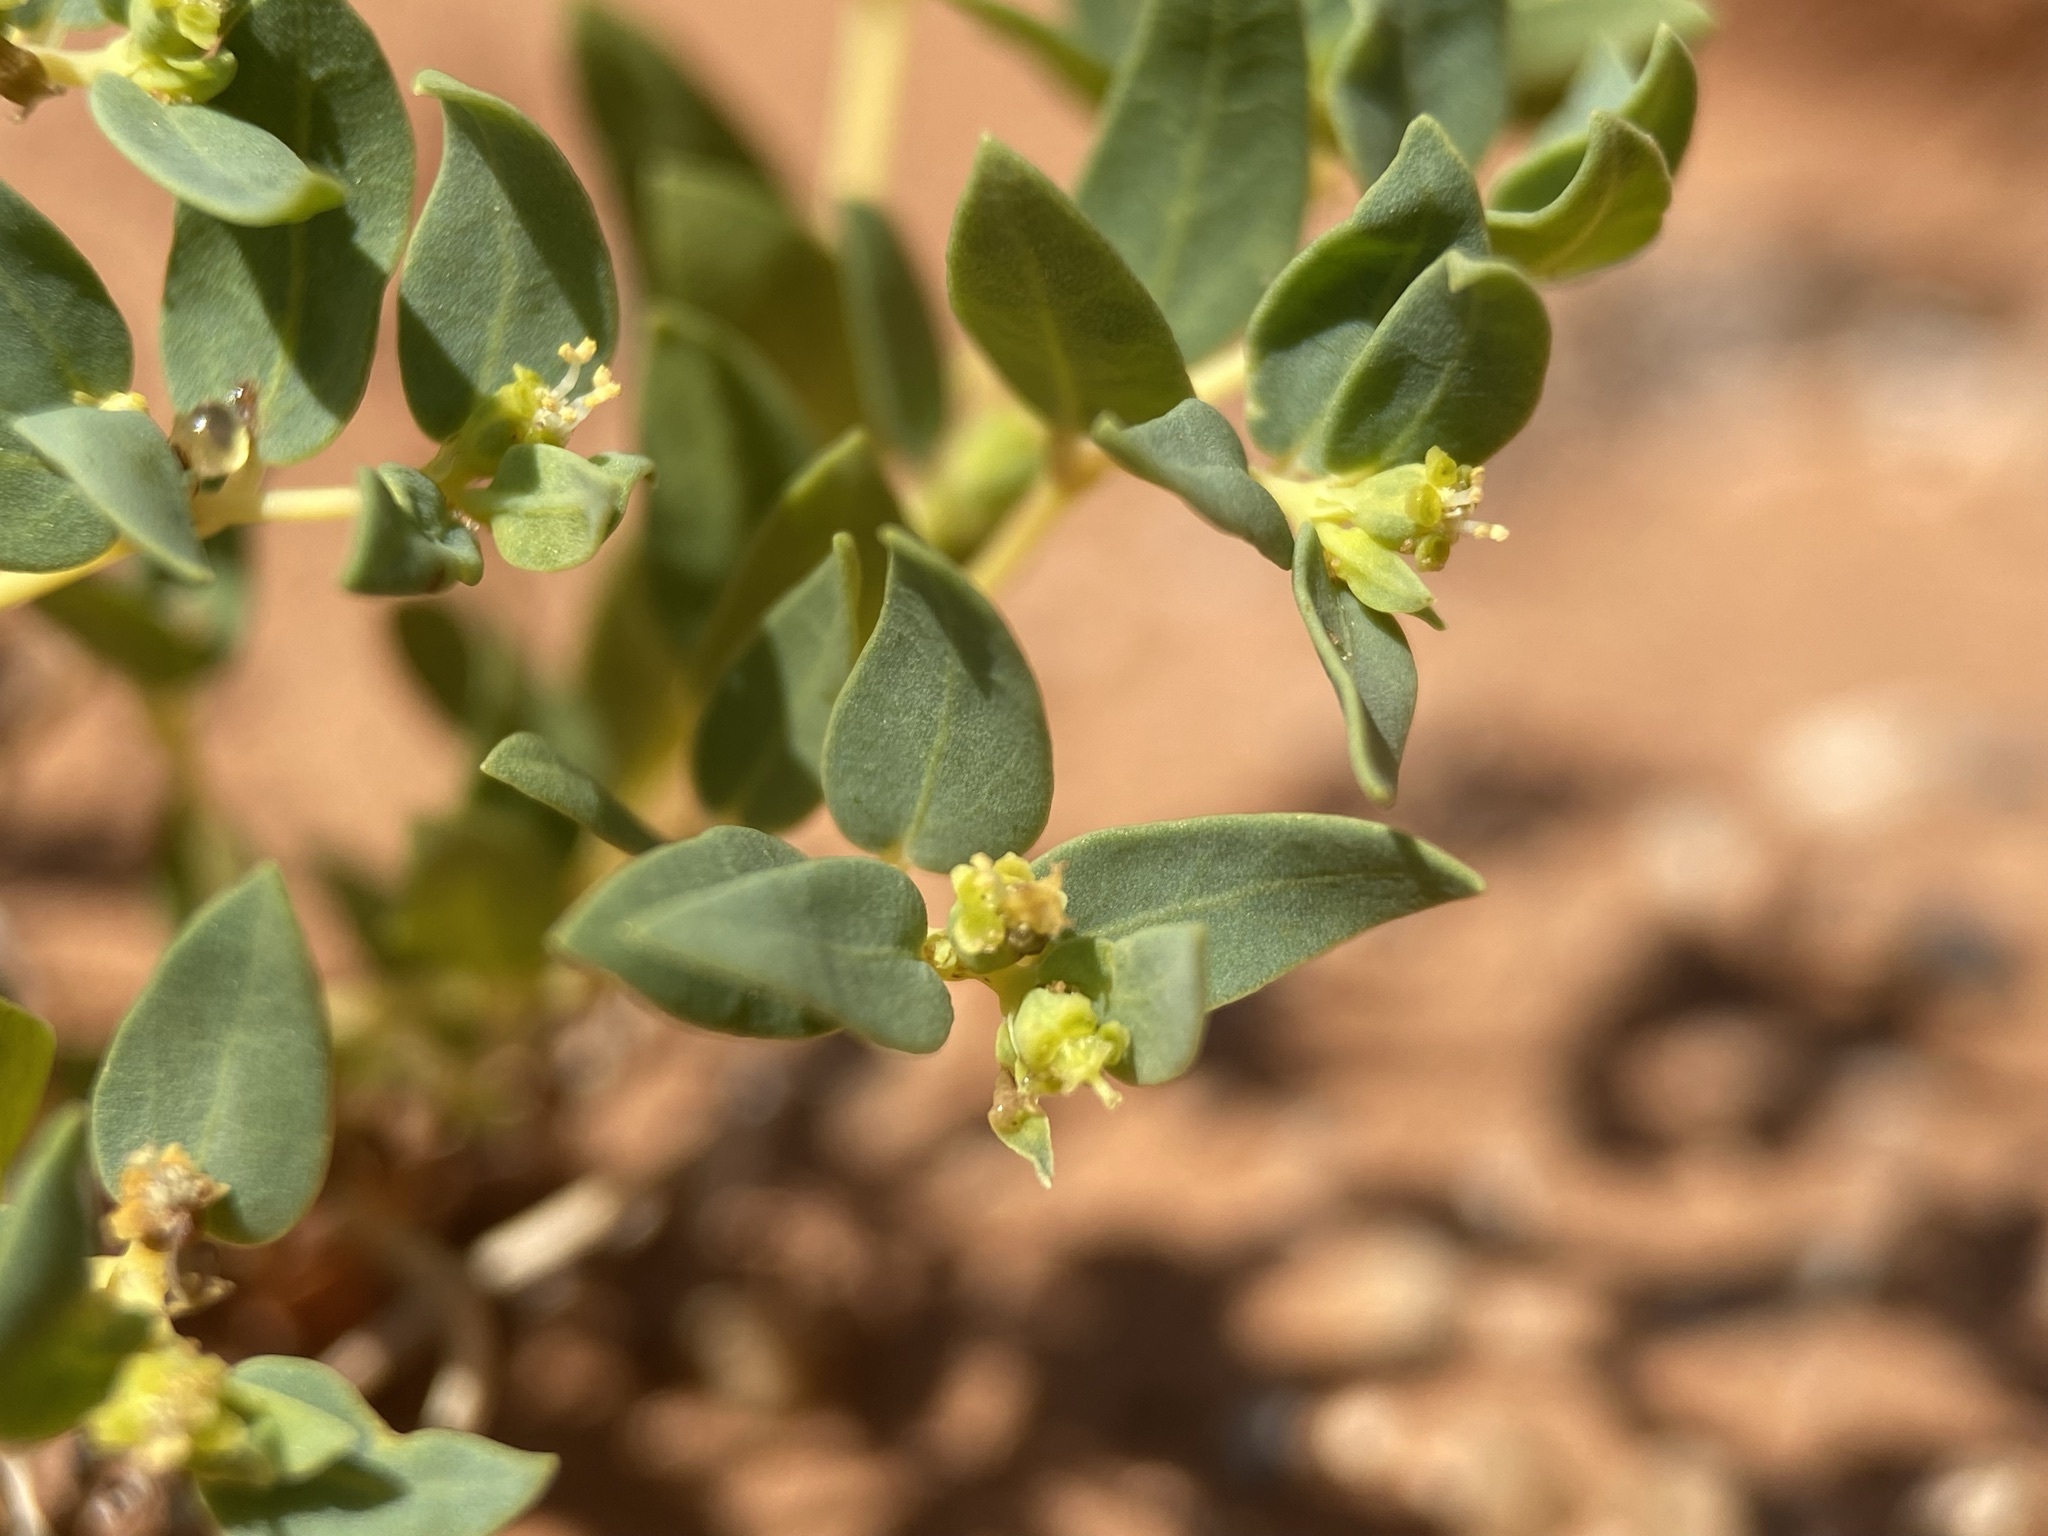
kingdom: Plantae
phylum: Tracheophyta
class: Magnoliopsida
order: Malpighiales
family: Euphorbiaceae
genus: Euphorbia
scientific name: Euphorbia fendleri
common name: Fendler's euphorbia
